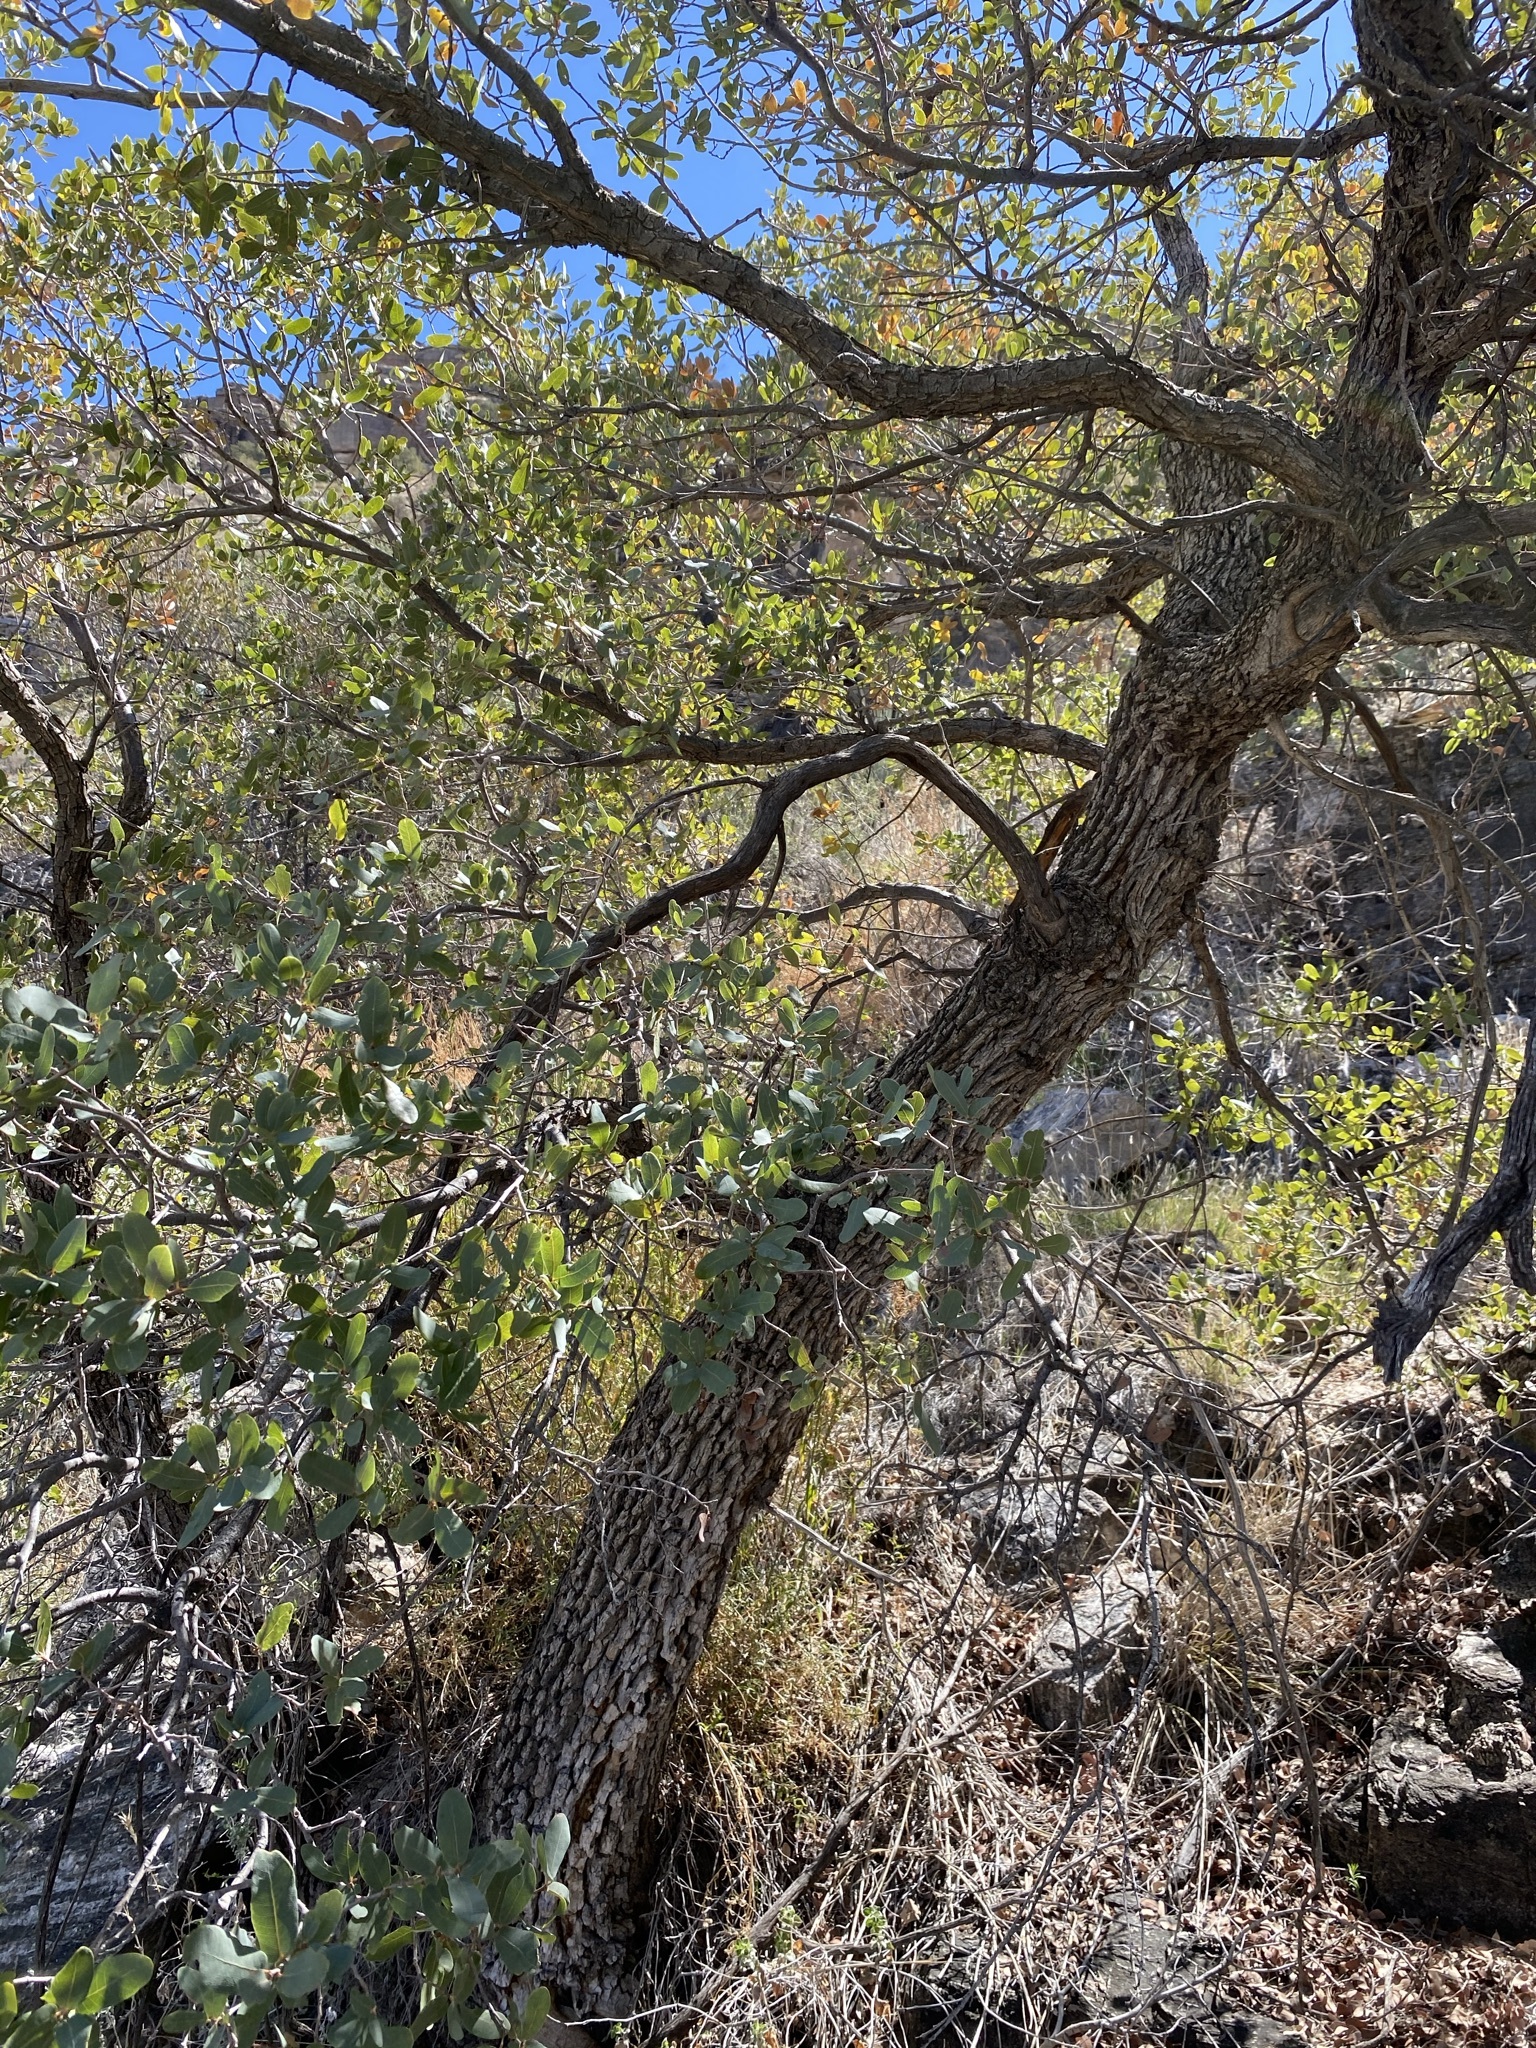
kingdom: Plantae
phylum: Tracheophyta
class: Magnoliopsida
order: Fagales
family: Fagaceae
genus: Quercus
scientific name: Quercus oblongifolia
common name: Mexican blue oak
